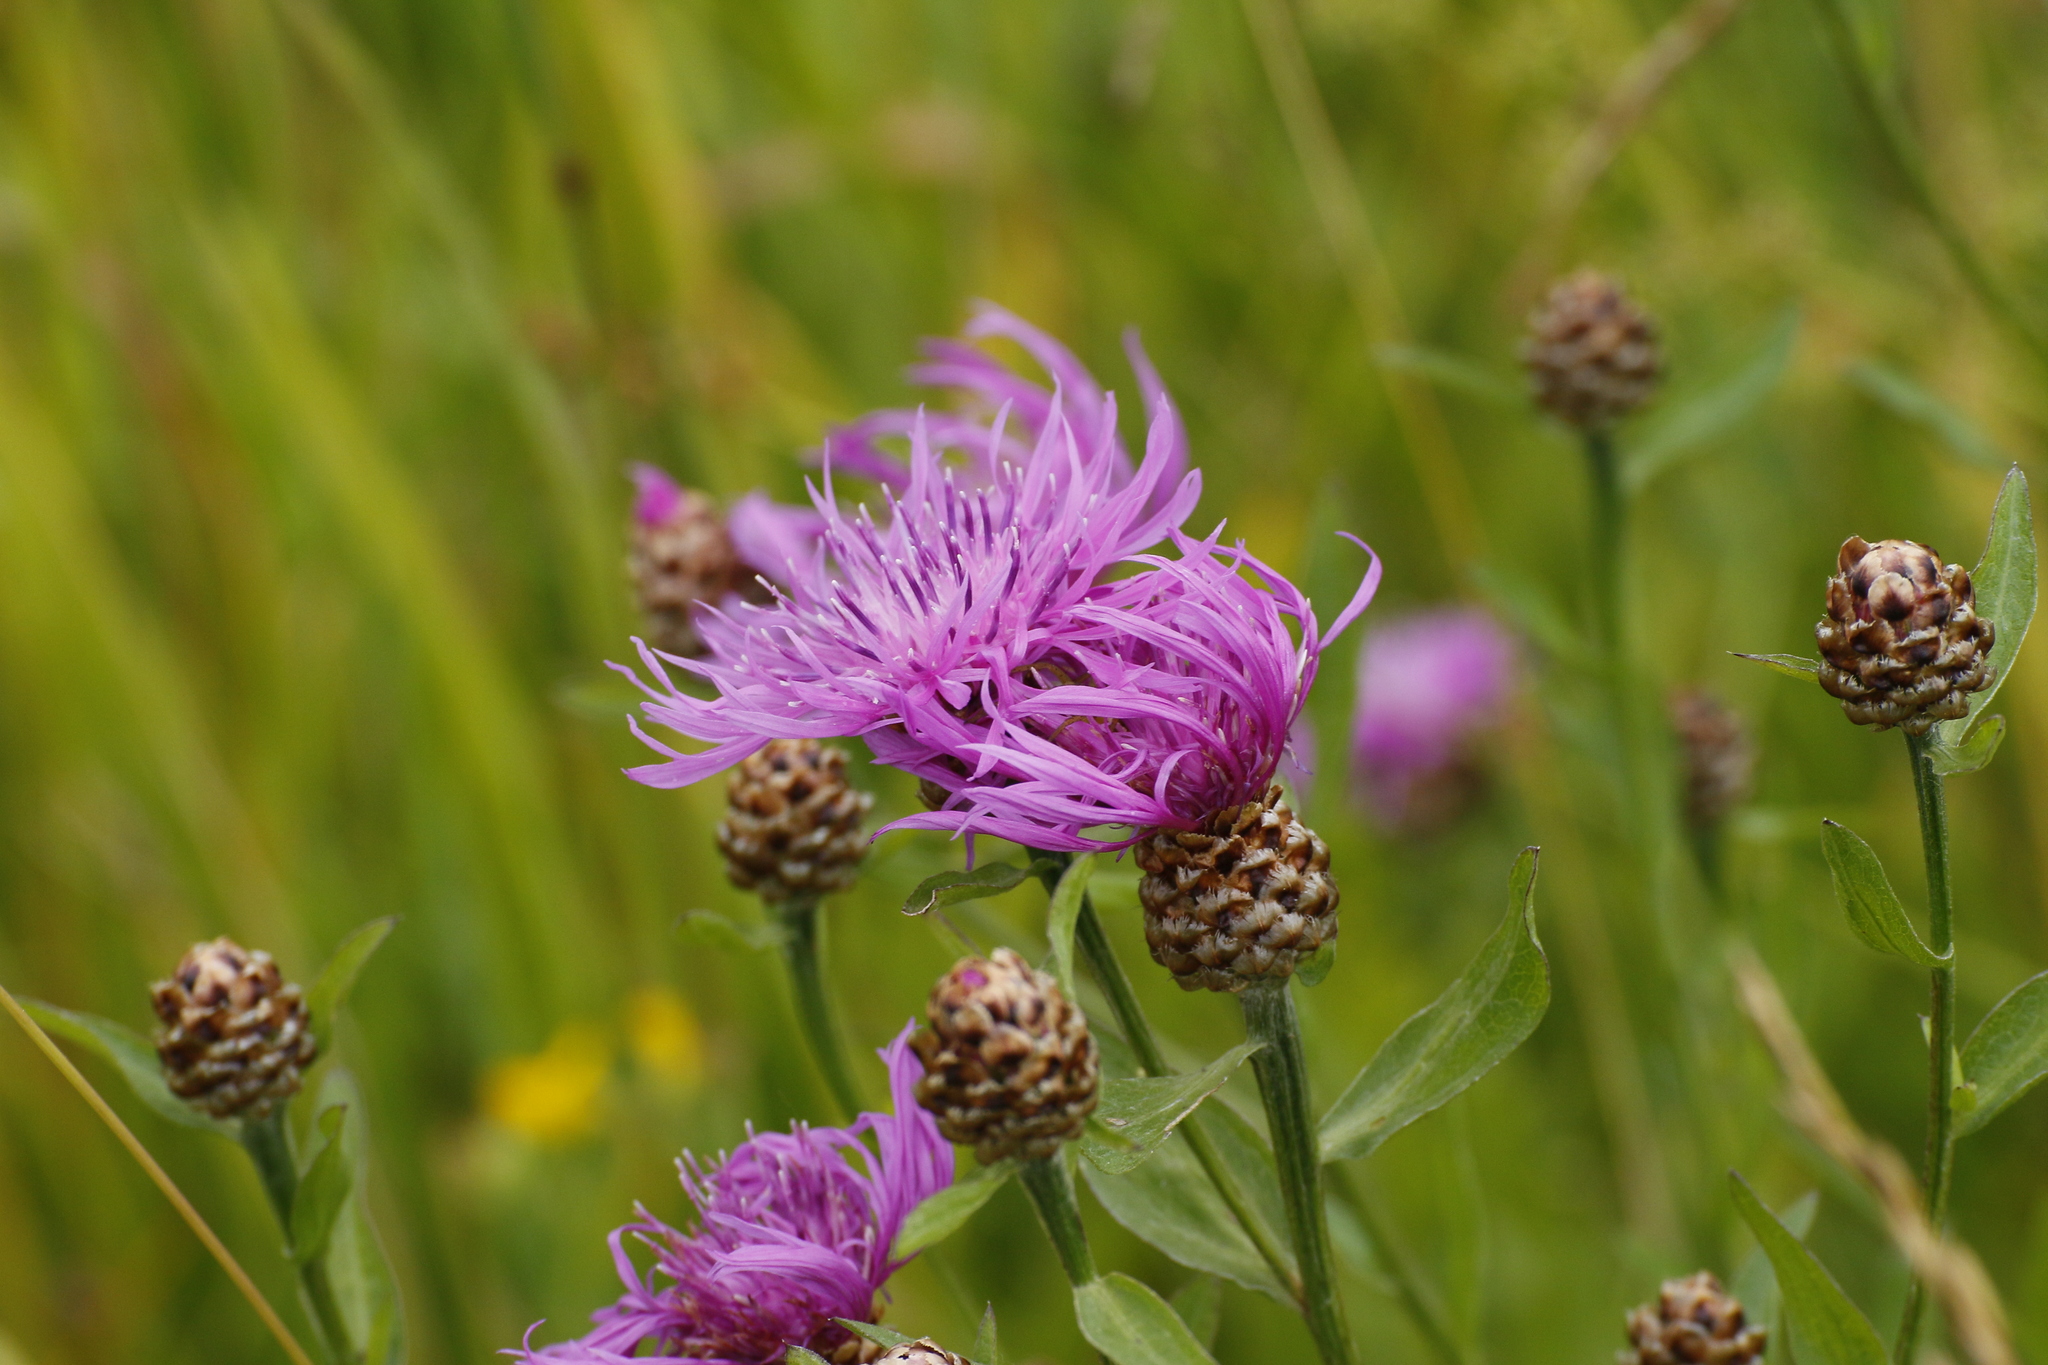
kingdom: Plantae
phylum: Tracheophyta
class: Magnoliopsida
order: Asterales
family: Asteraceae
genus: Centaurea
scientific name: Centaurea jacea
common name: Brown knapweed
